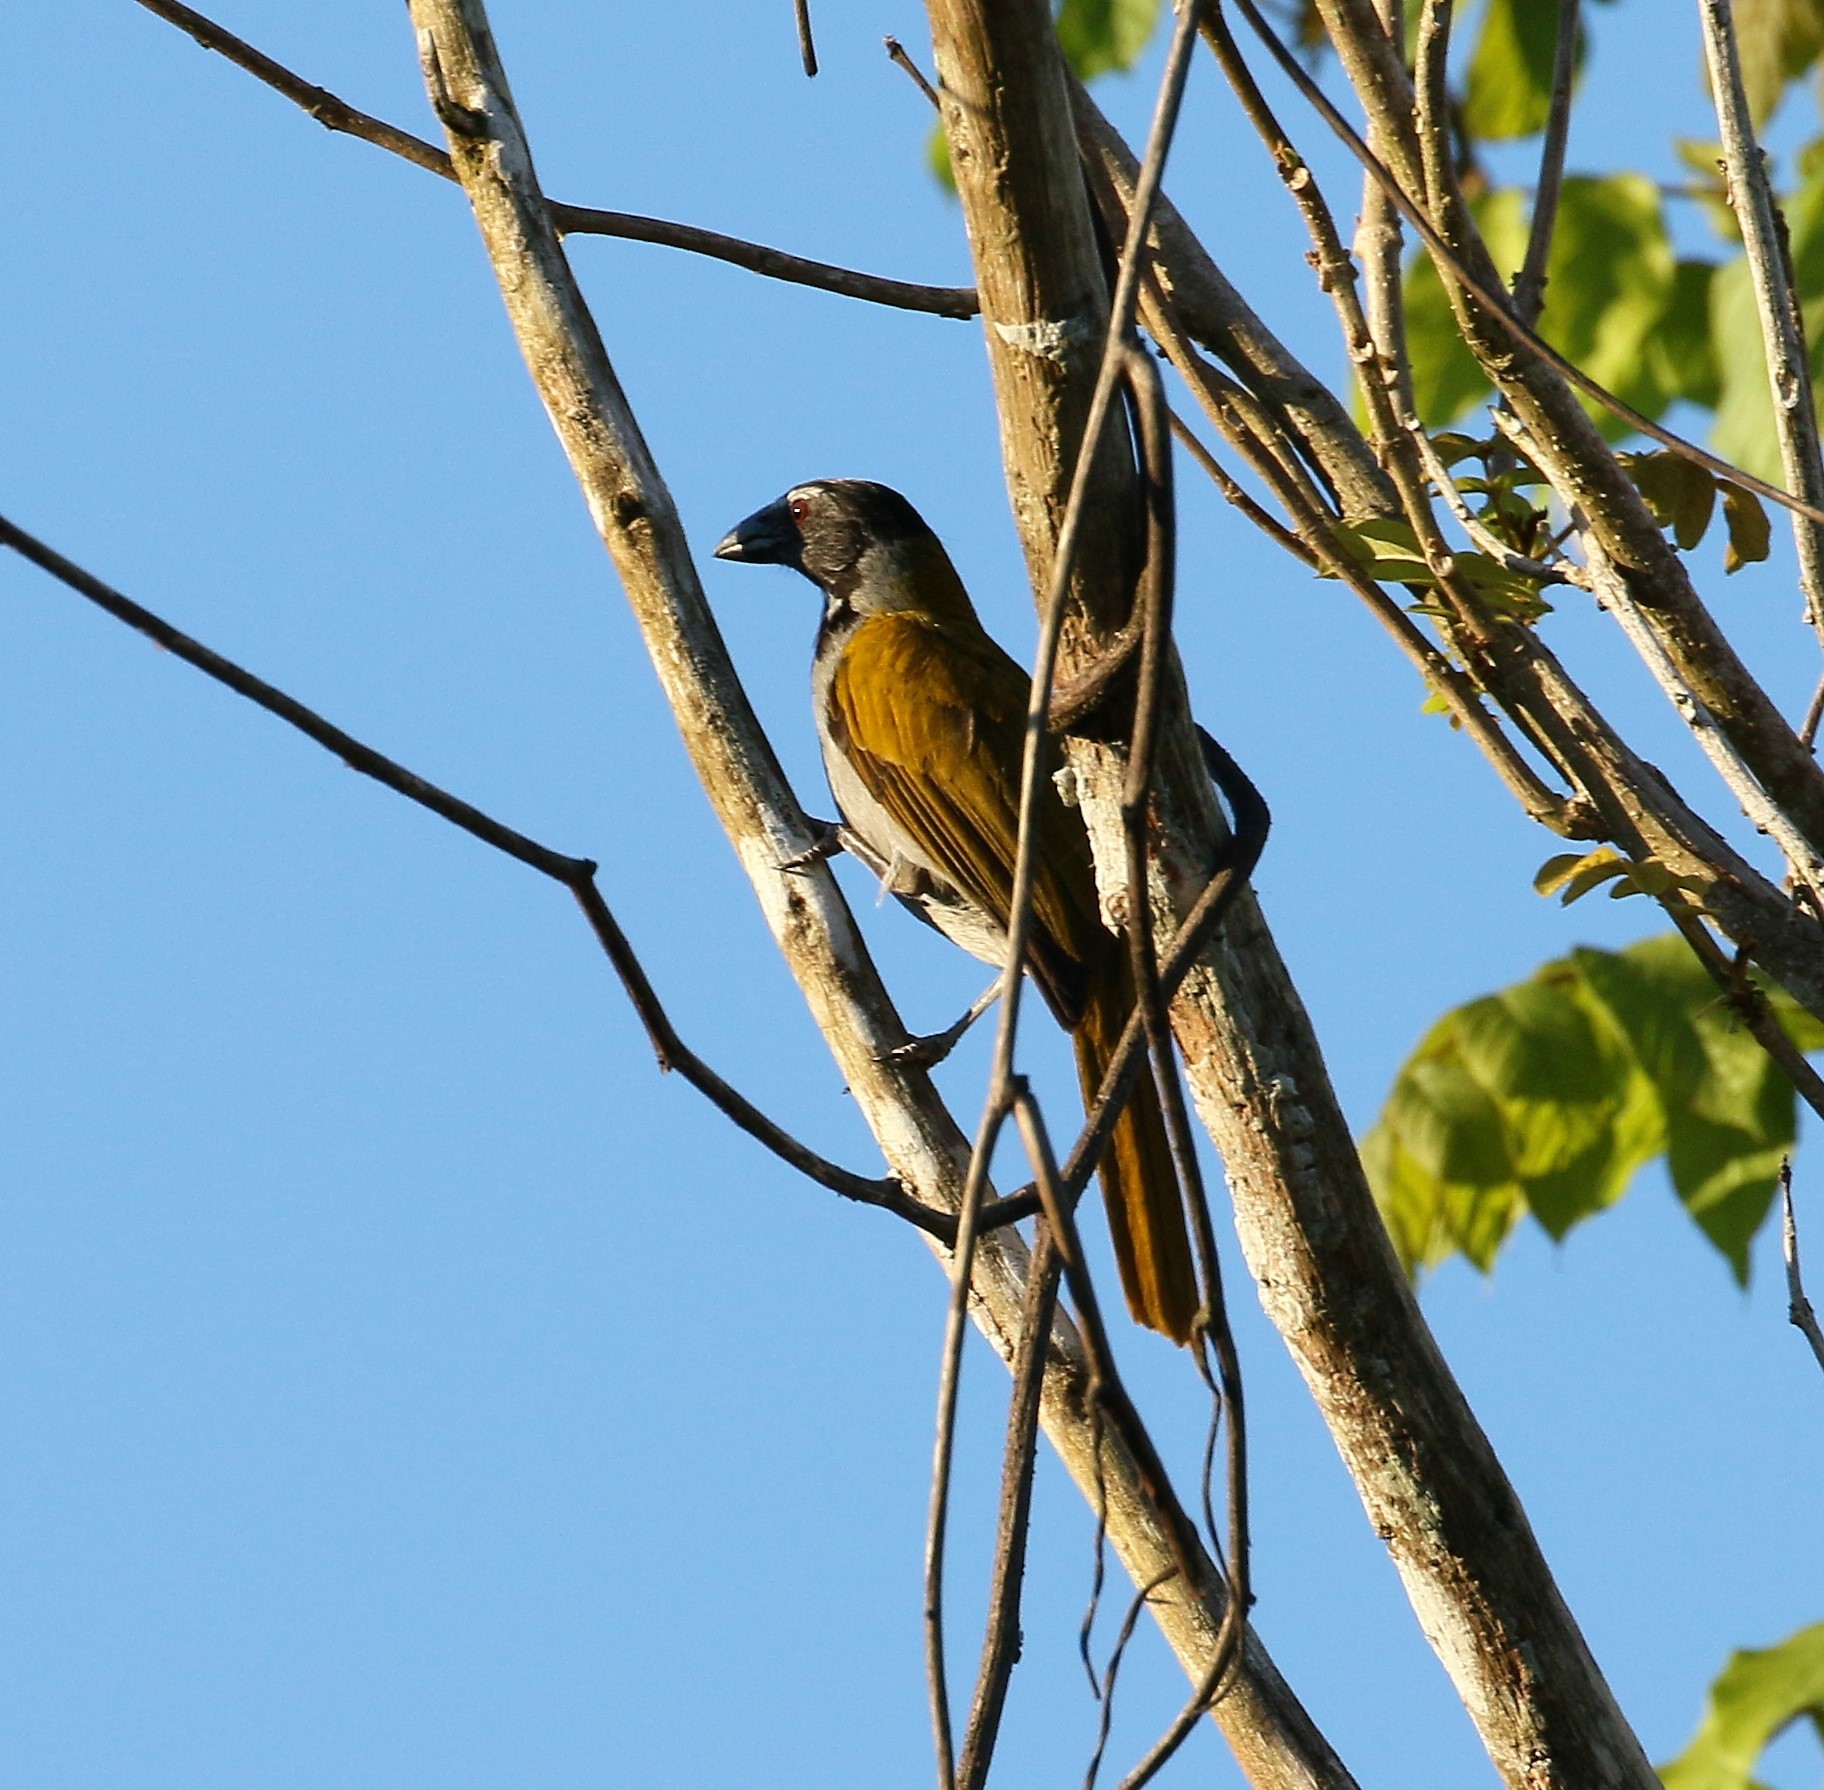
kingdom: Animalia
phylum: Chordata
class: Aves
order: Passeriformes
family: Thraupidae
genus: Saltator
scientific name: Saltator atriceps
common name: Black-headed saltator
